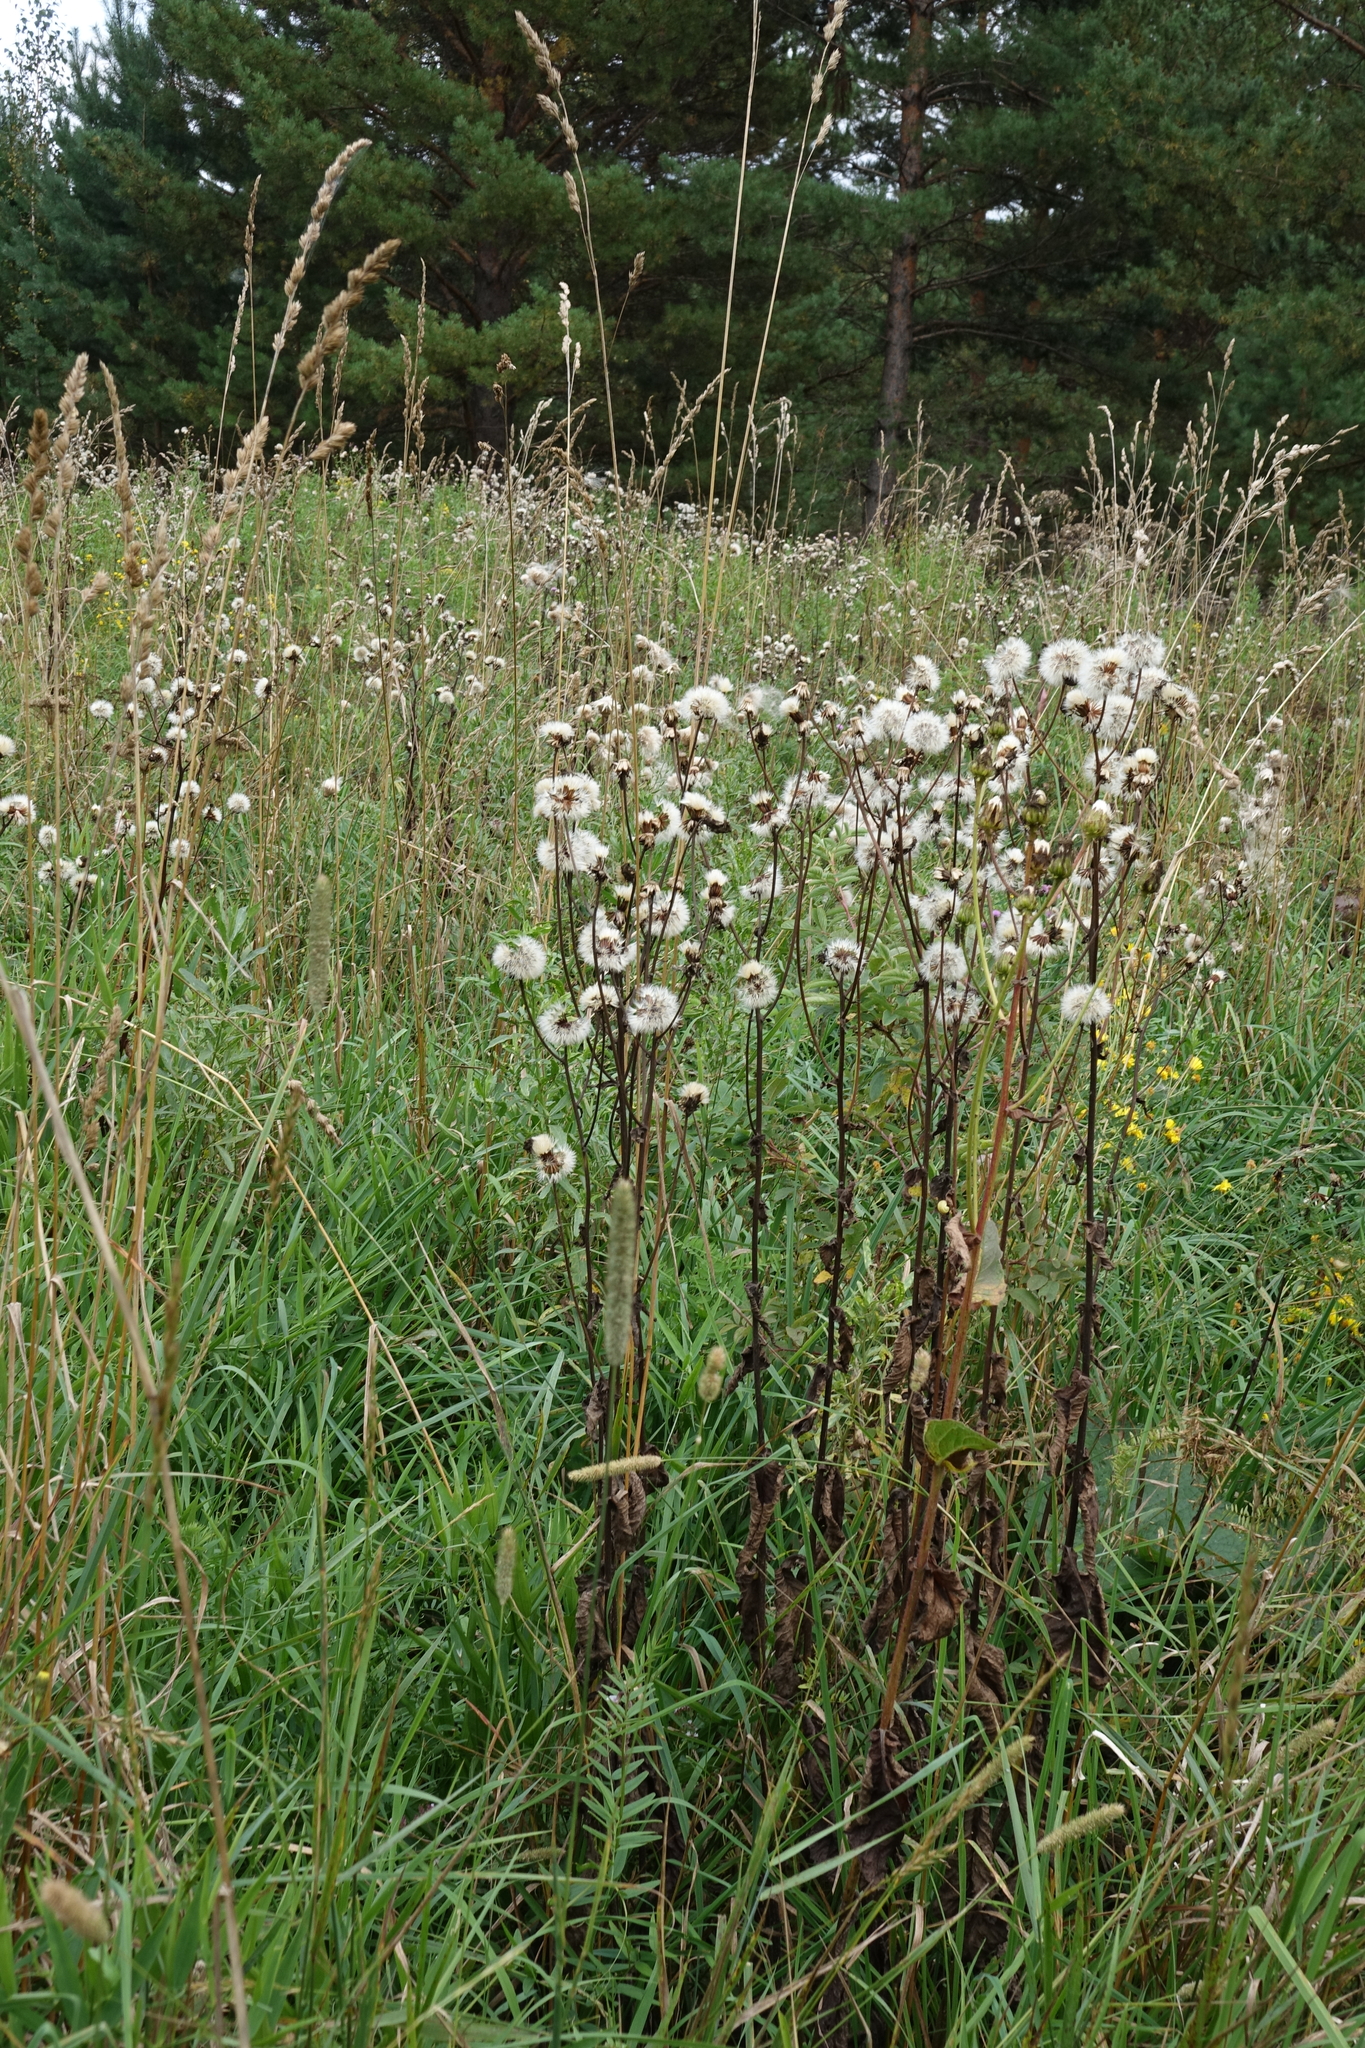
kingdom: Plantae
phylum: Tracheophyta
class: Magnoliopsida
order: Asterales
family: Asteraceae
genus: Crepis
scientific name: Crepis sibirica
